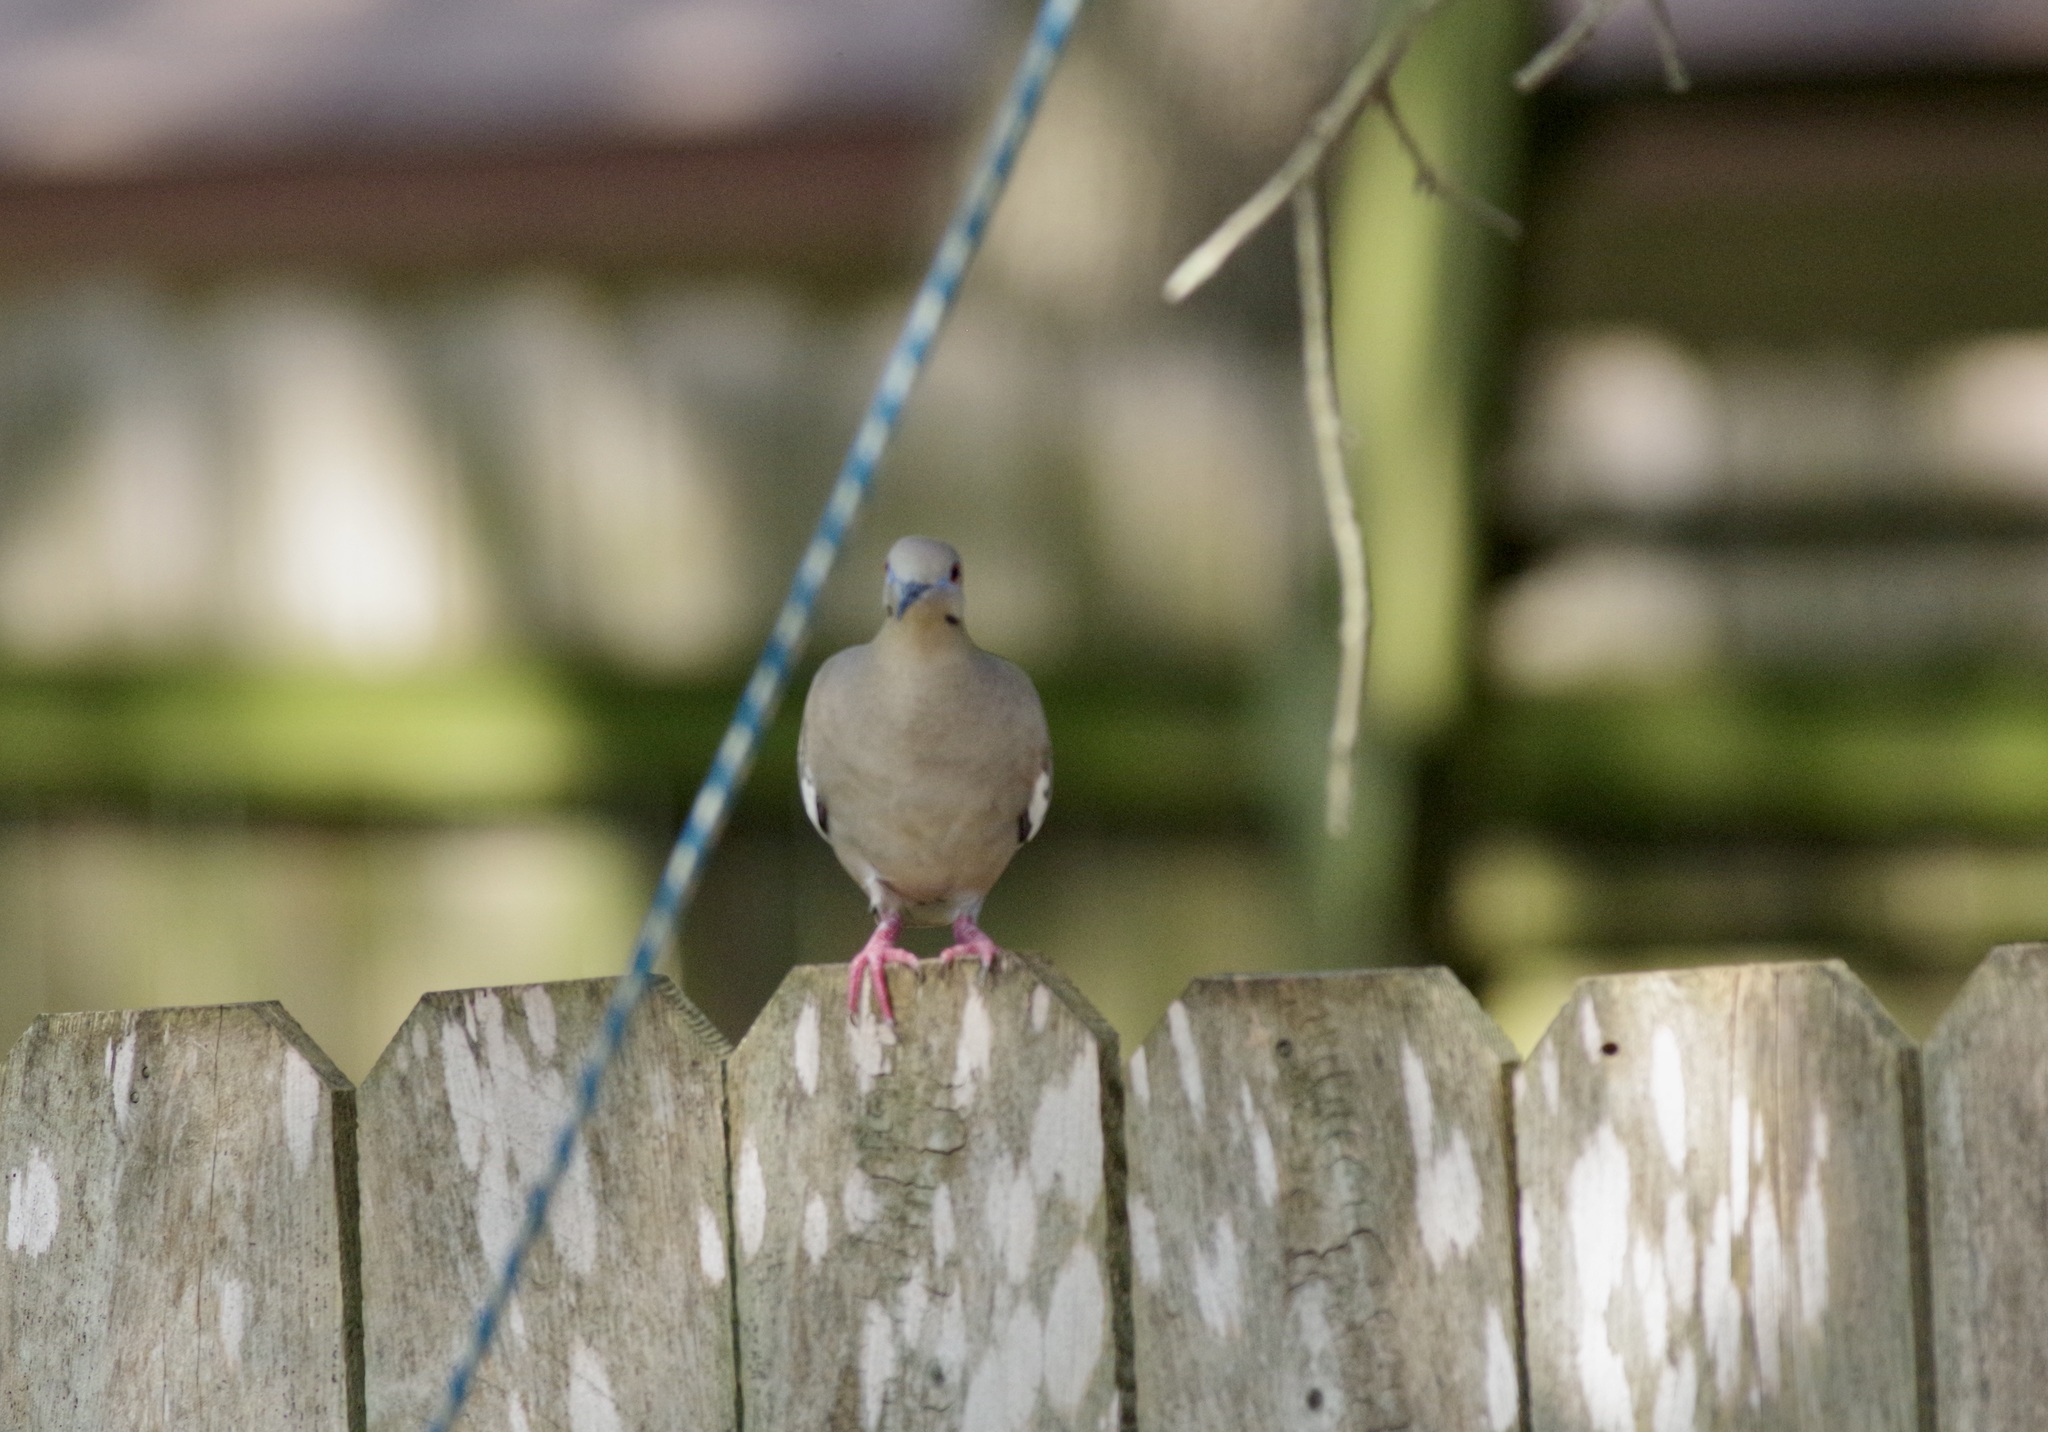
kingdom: Animalia
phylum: Chordata
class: Aves
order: Columbiformes
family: Columbidae
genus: Zenaida
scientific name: Zenaida asiatica
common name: White-winged dove
